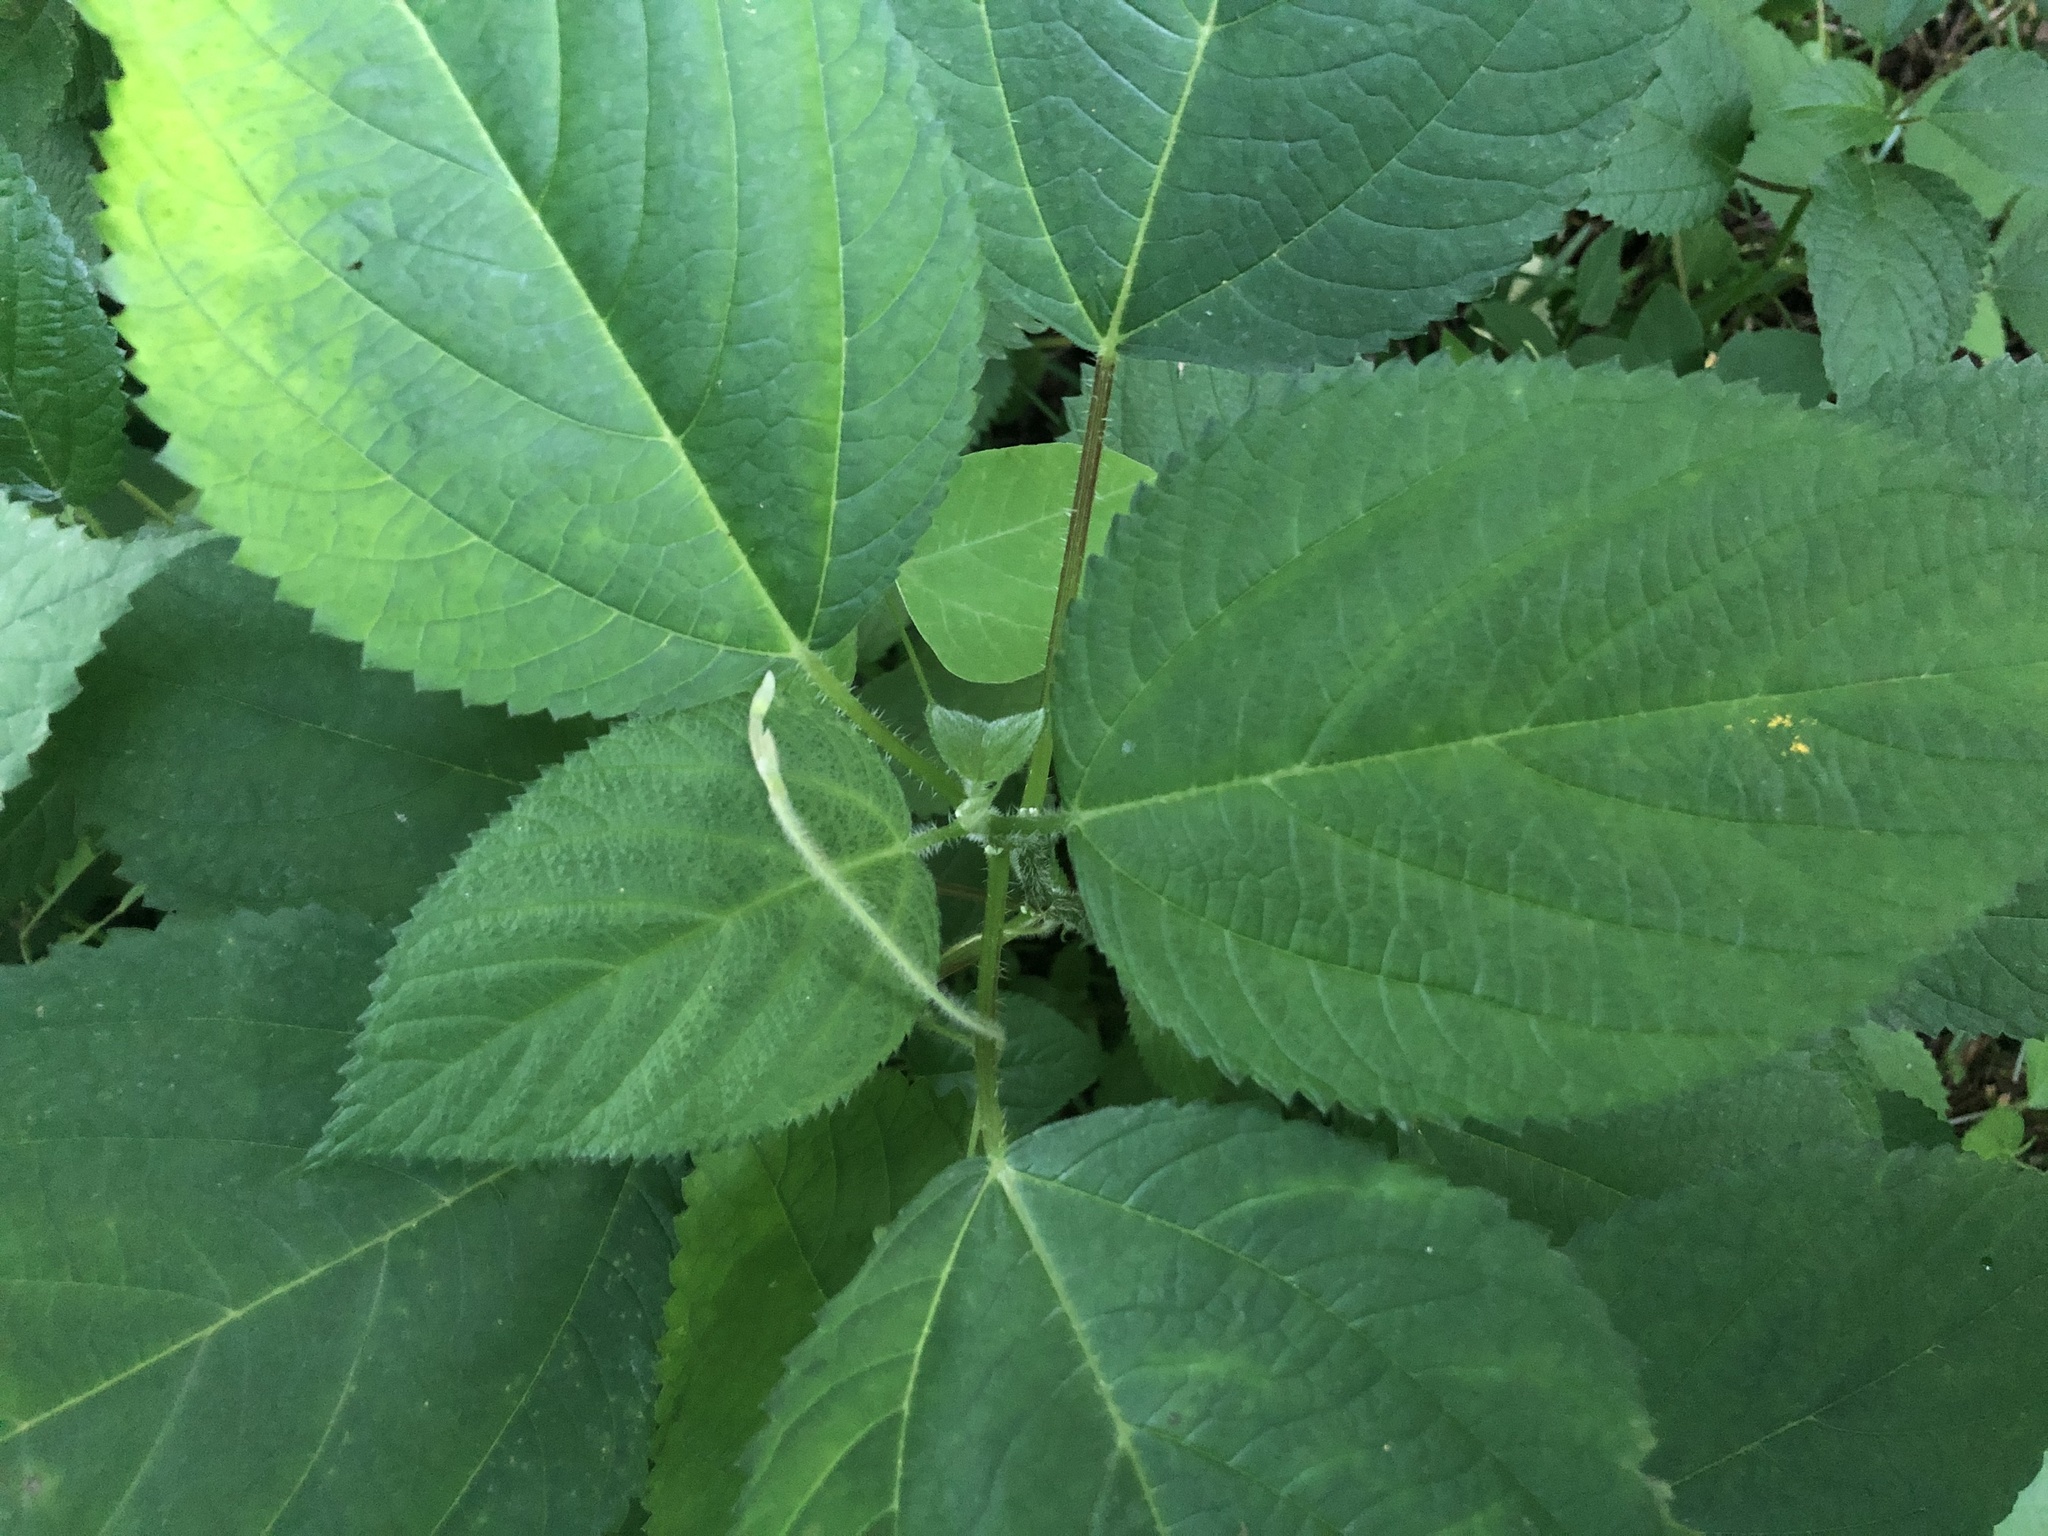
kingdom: Plantae
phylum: Tracheophyta
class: Magnoliopsida
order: Rosales
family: Urticaceae
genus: Laportea
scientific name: Laportea canadensis
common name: Canada nettle
